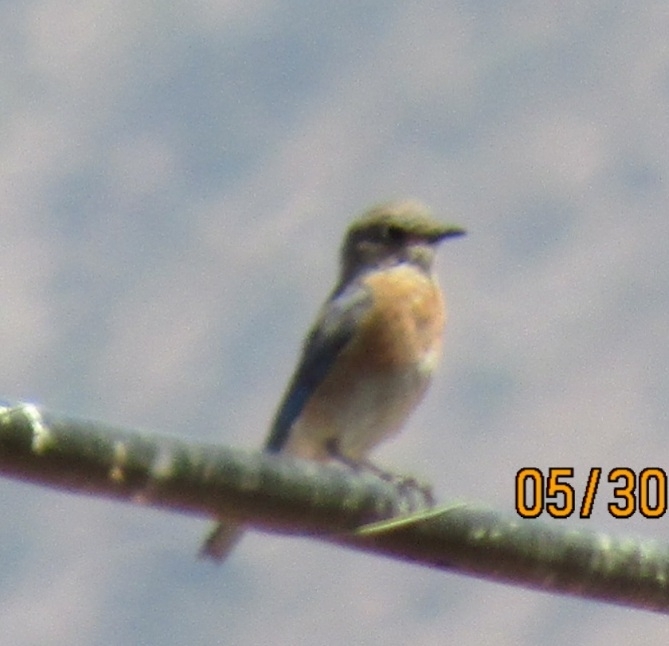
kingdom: Animalia
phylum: Chordata
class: Aves
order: Passeriformes
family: Turdidae
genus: Sialia
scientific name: Sialia mexicana
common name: Western bluebird
